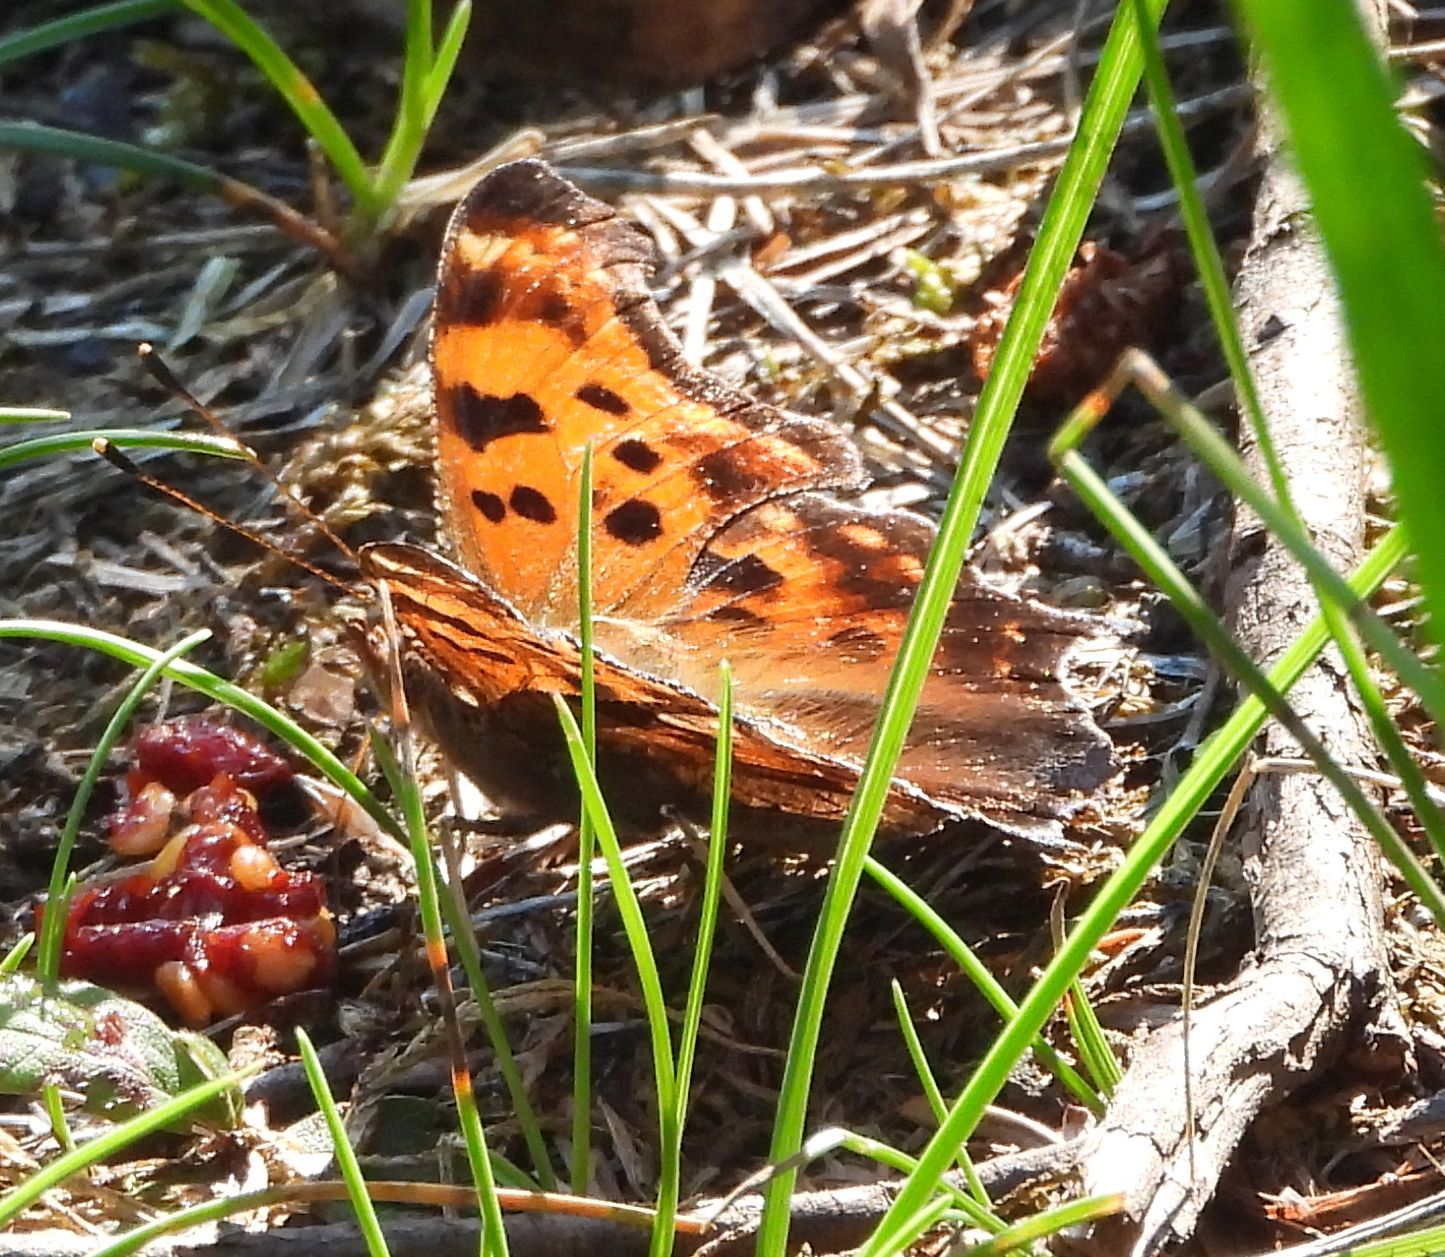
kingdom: Animalia
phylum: Arthropoda
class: Insecta
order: Lepidoptera
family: Nymphalidae
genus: Polygonia
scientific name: Polygonia comma
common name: Eastern comma
